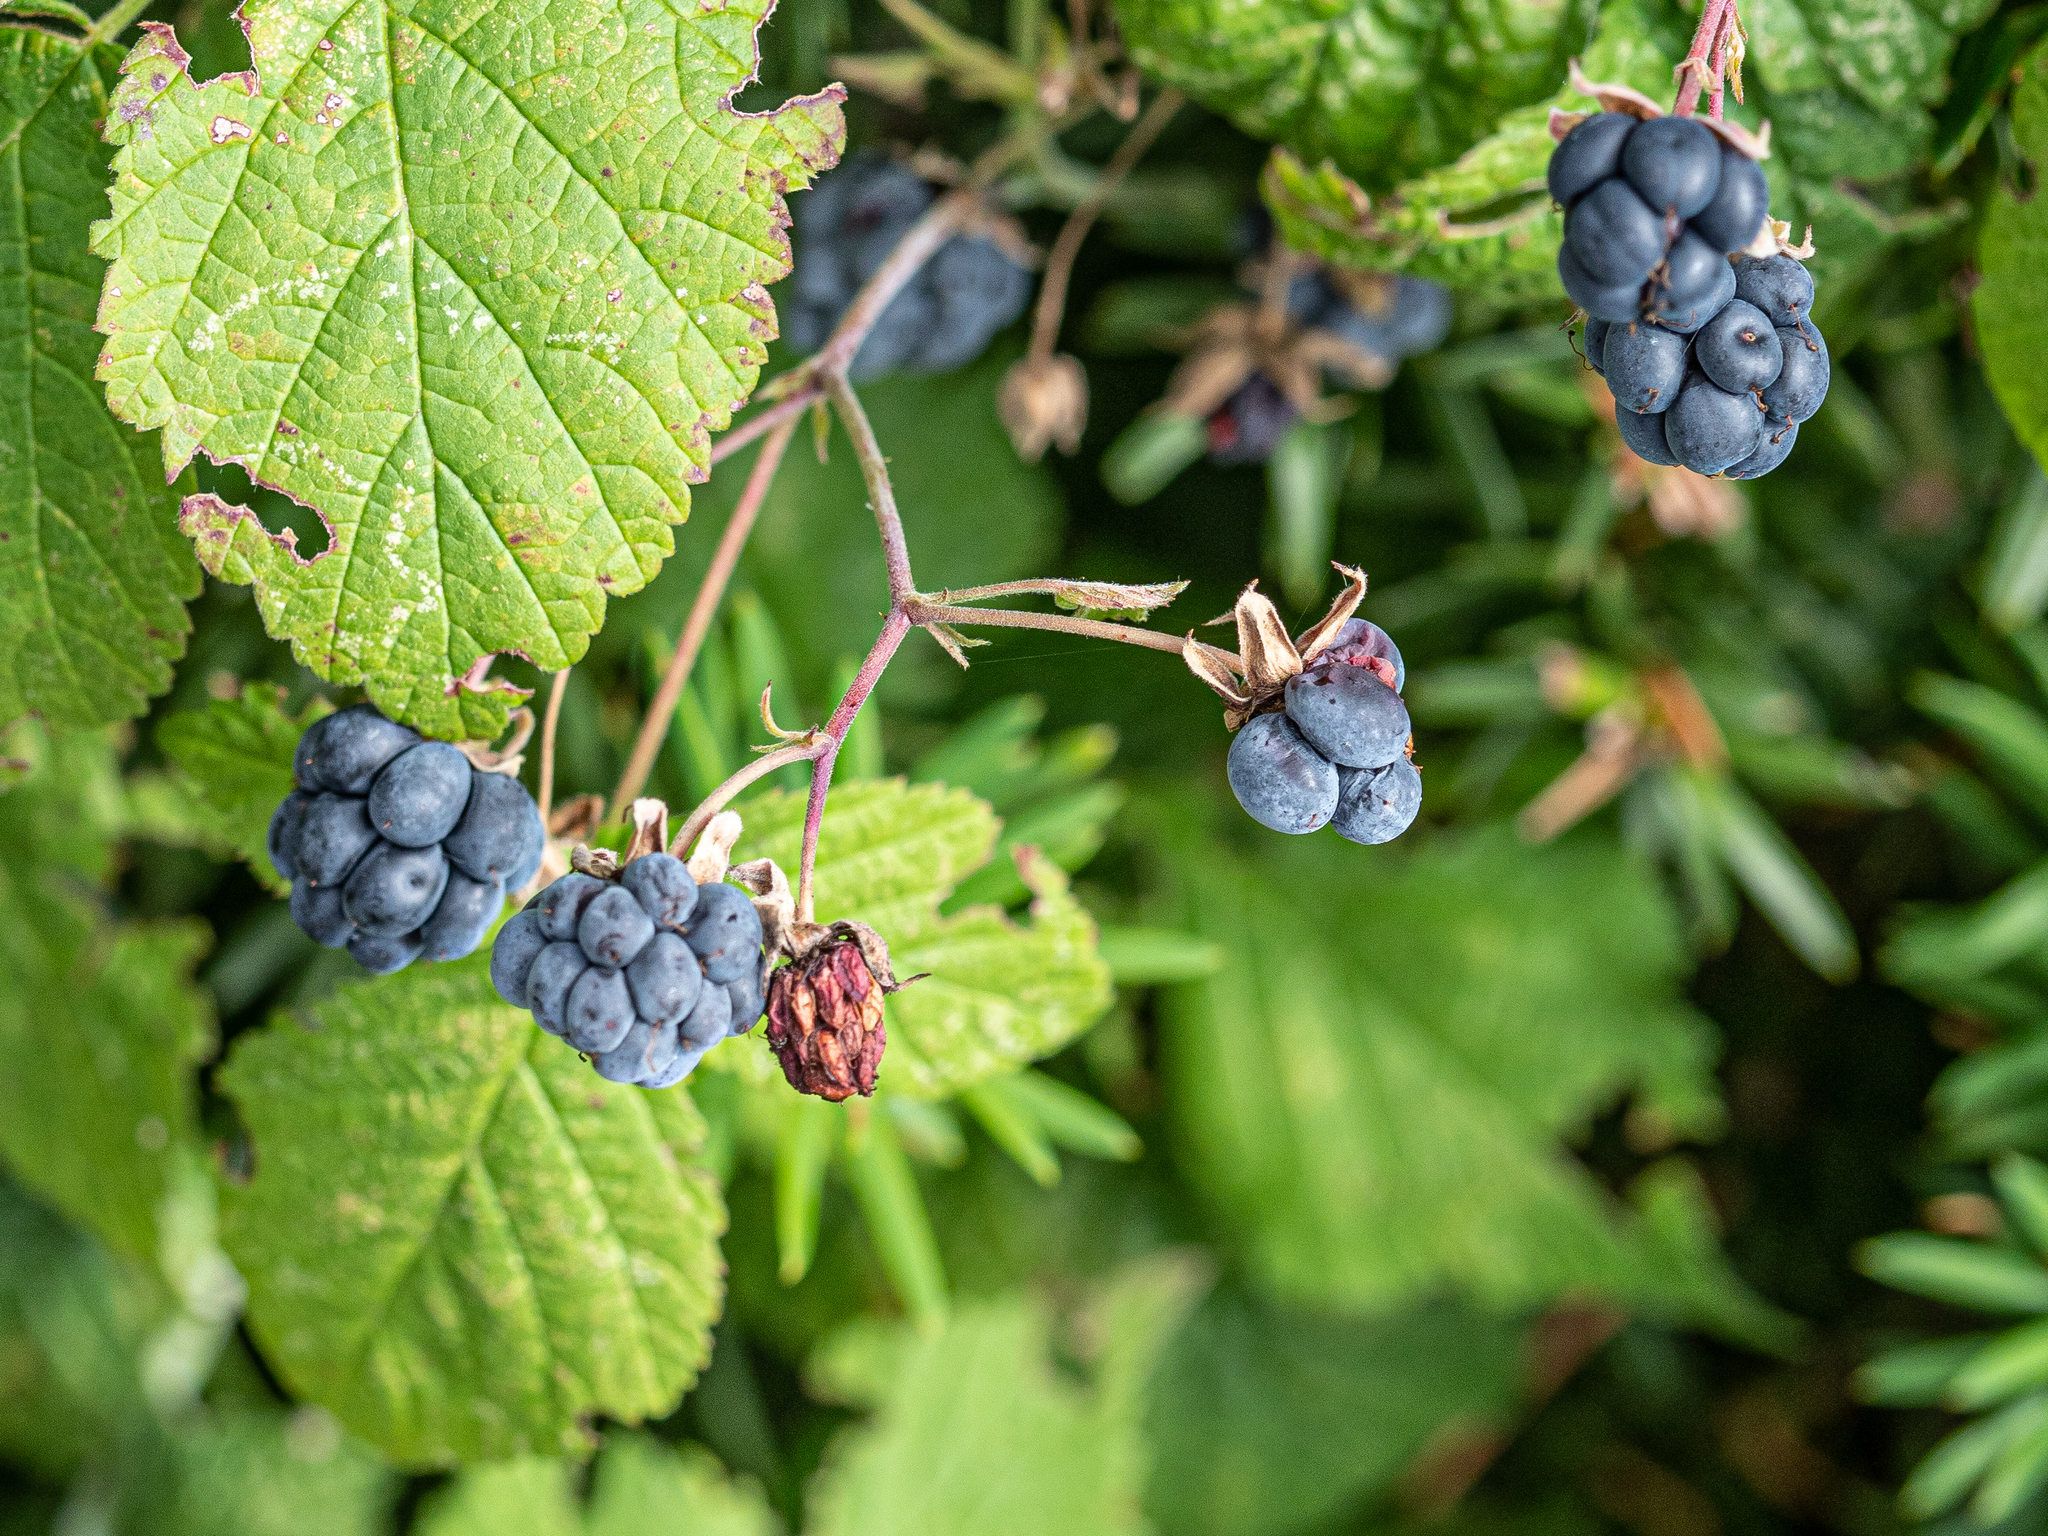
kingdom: Plantae
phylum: Tracheophyta
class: Magnoliopsida
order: Rosales
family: Rosaceae
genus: Rubus
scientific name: Rubus caesius
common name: Dewberry
